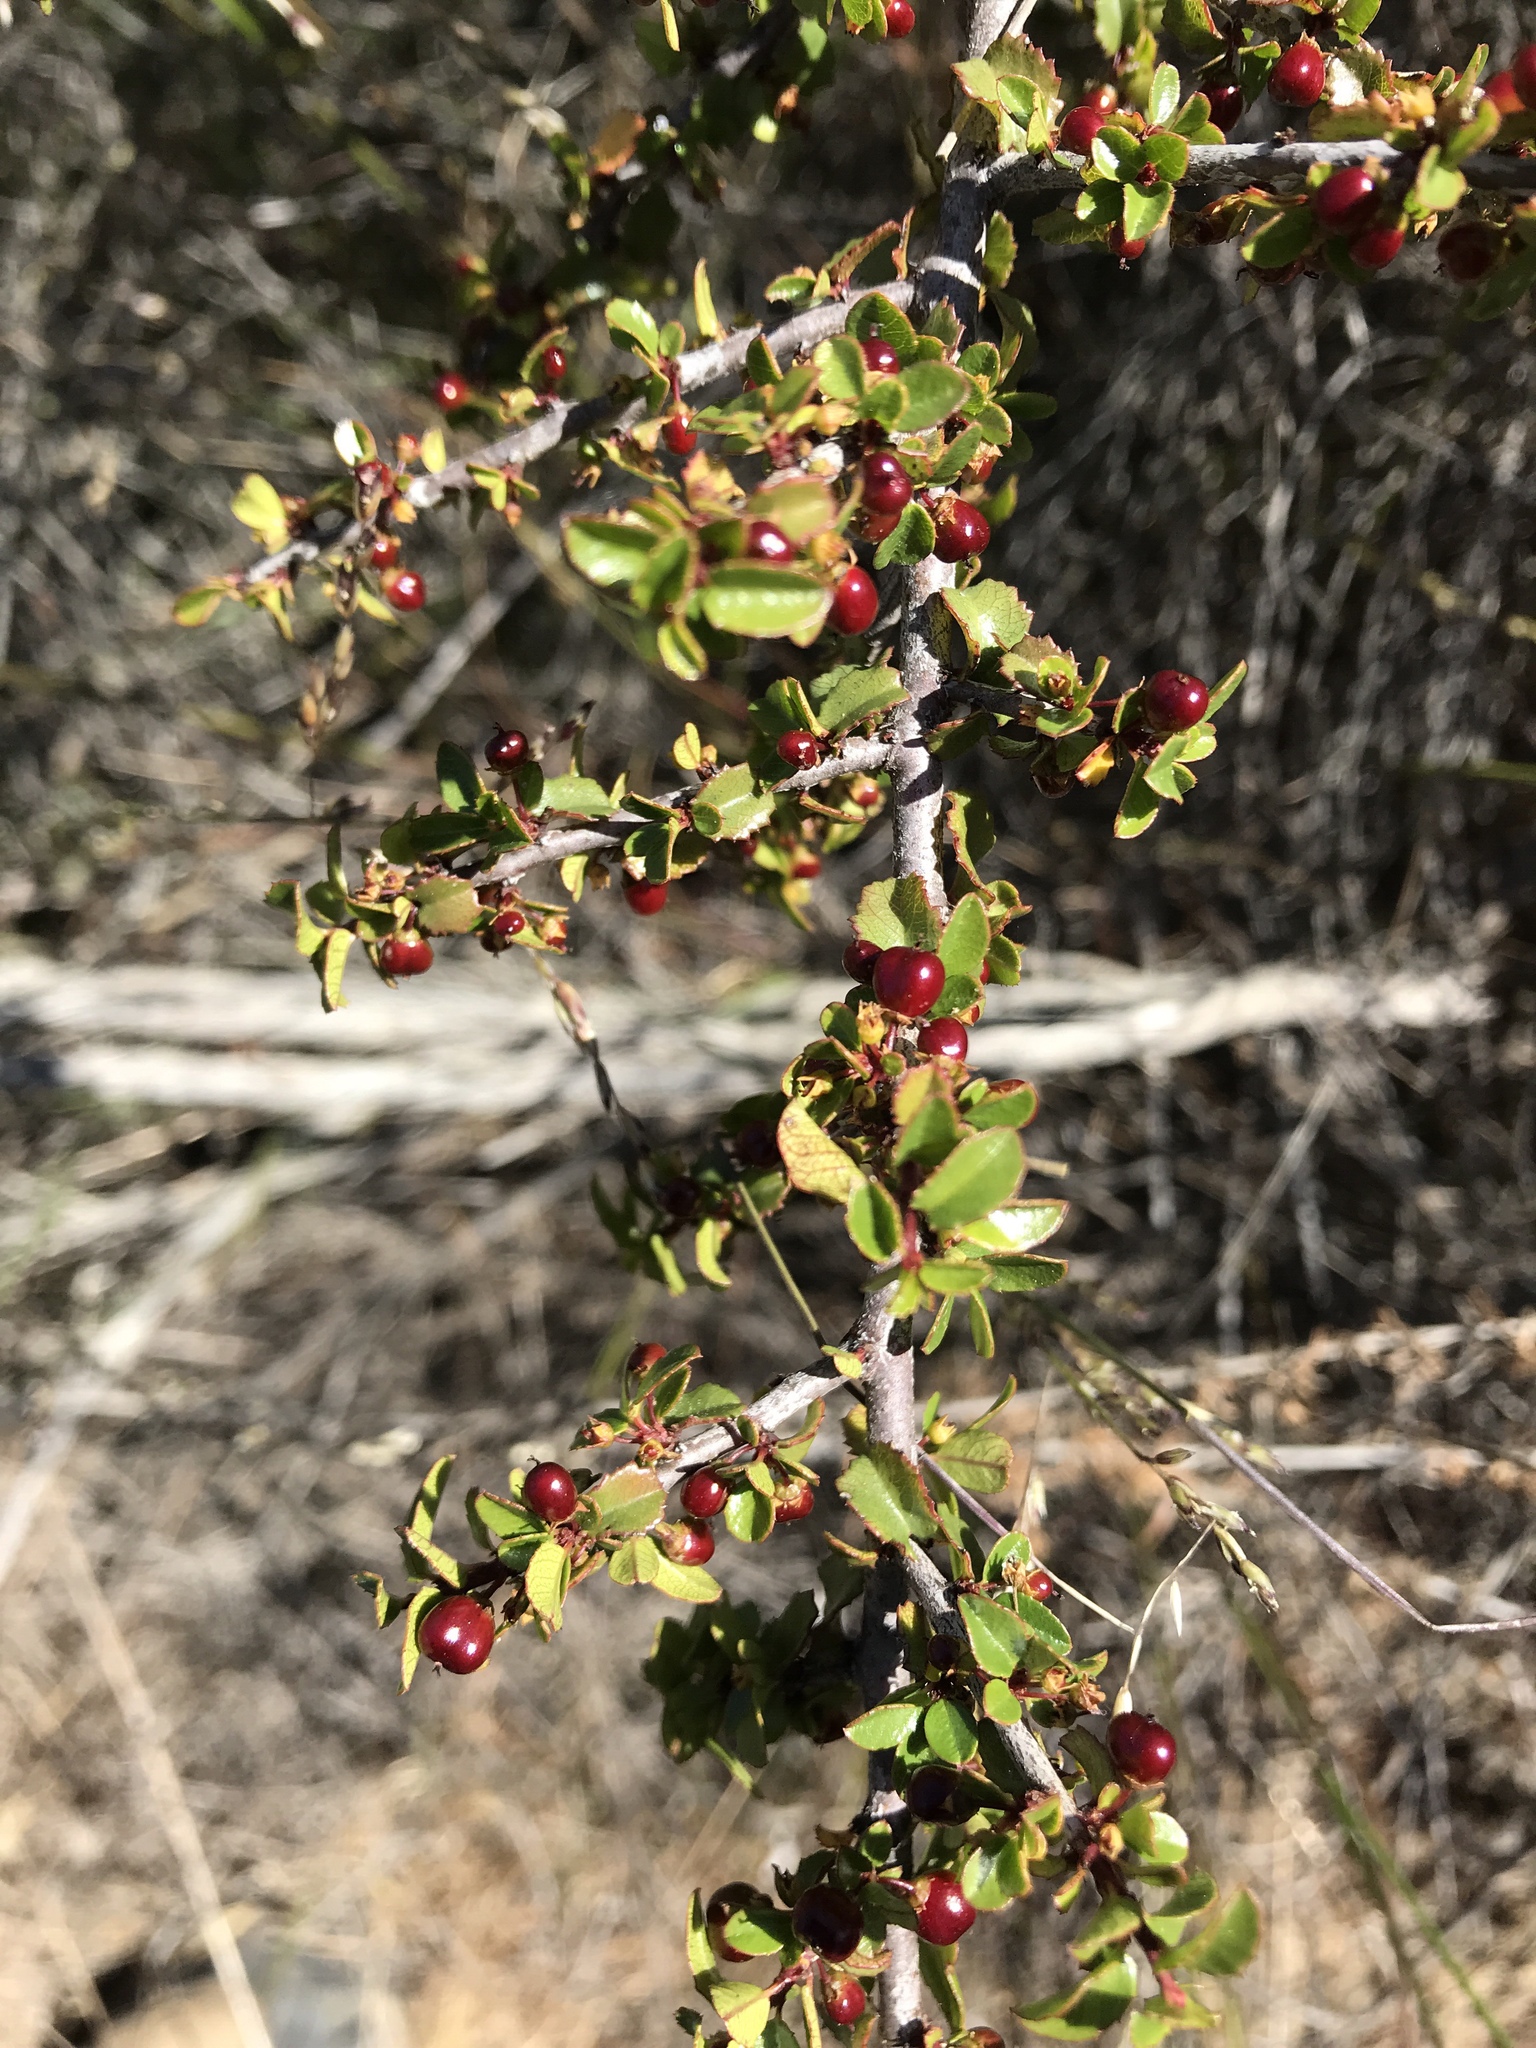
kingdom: Plantae
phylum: Tracheophyta
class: Magnoliopsida
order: Rosales
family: Rhamnaceae
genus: Endotropis
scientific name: Endotropis crocea
